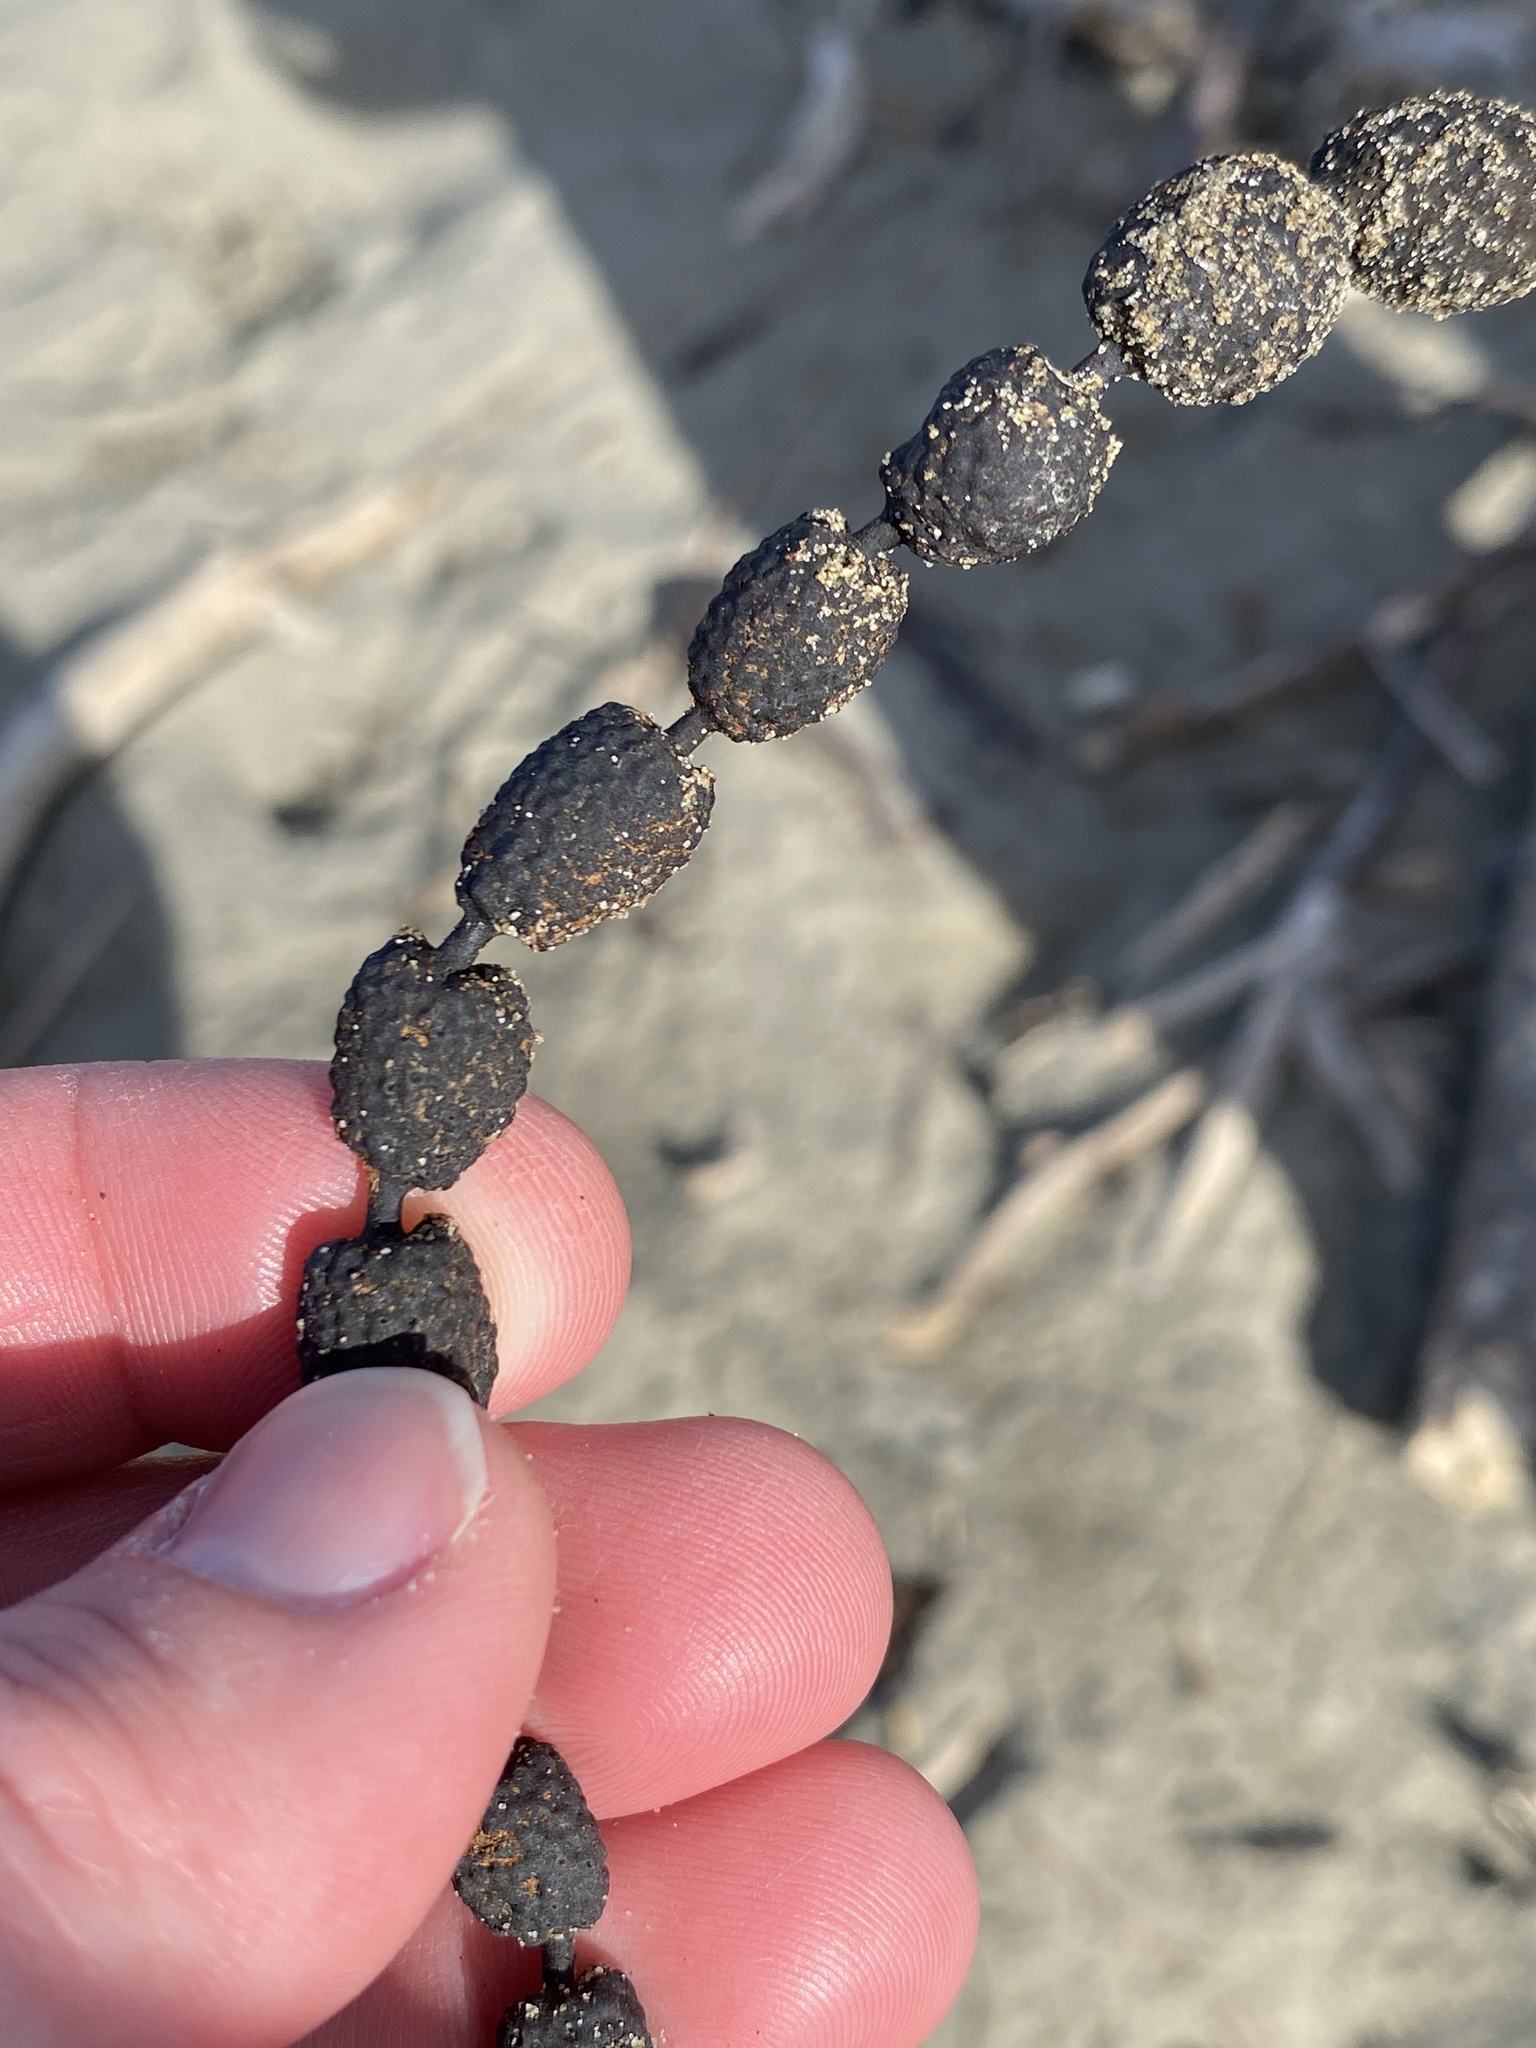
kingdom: Chromista
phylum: Ochrophyta
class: Phaeophyceae
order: Fucales
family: Hormosiraceae
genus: Hormosira
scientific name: Hormosira banksii
